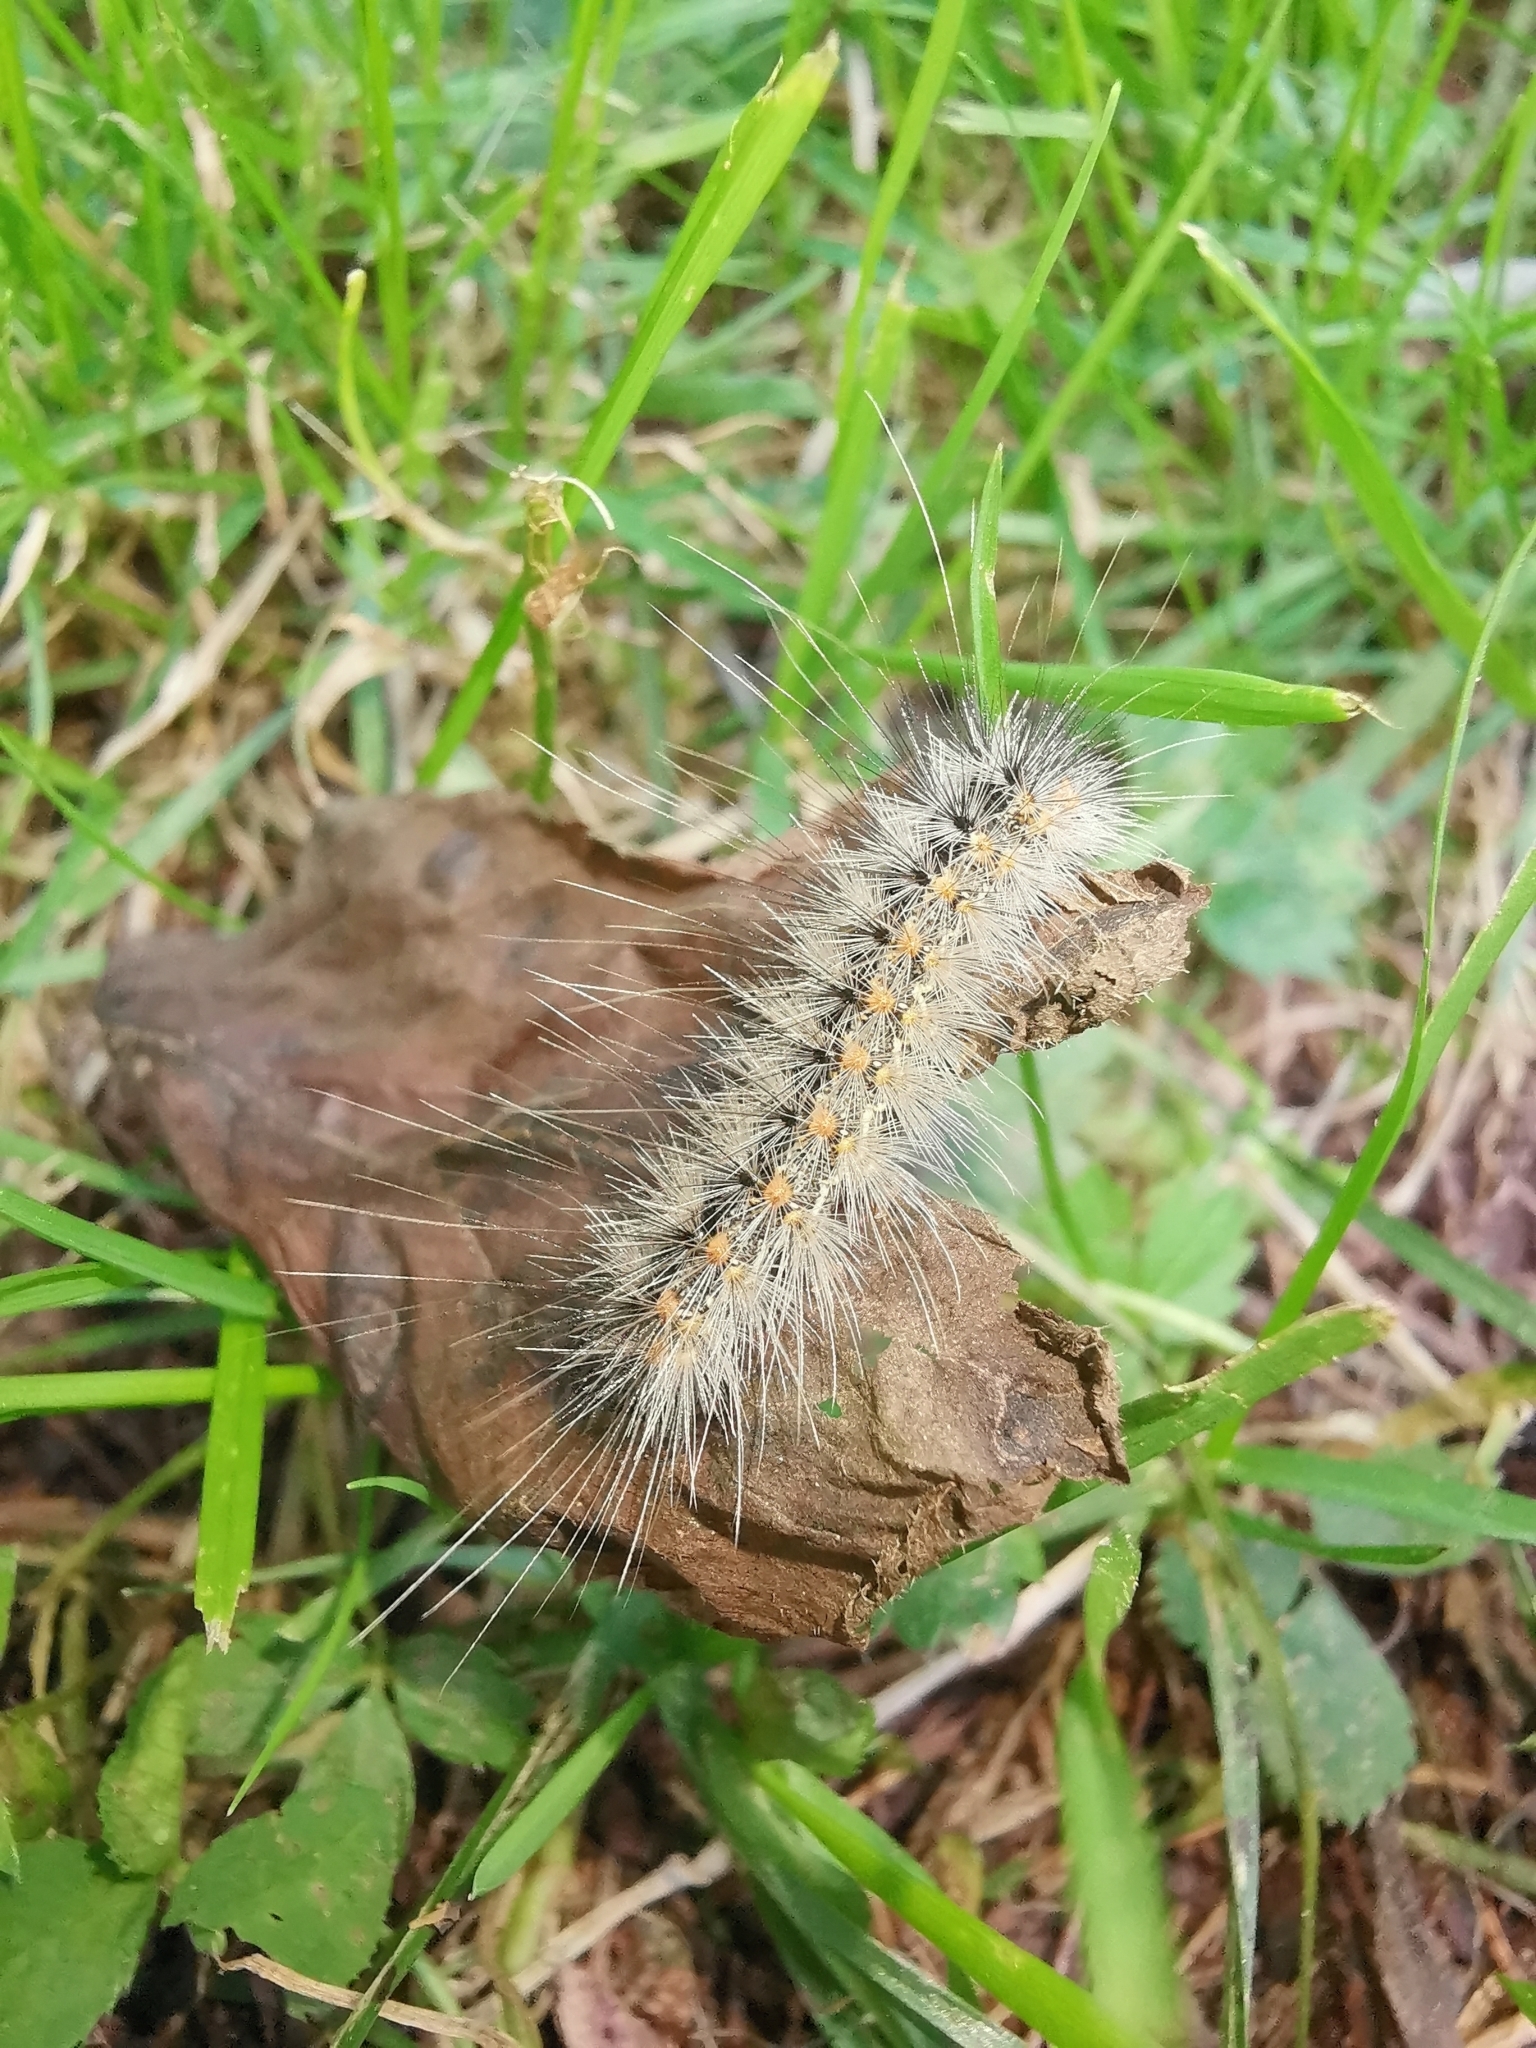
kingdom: Animalia
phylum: Arthropoda
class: Insecta
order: Lepidoptera
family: Erebidae
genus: Hyphantria
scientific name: Hyphantria cunea
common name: American white moth
